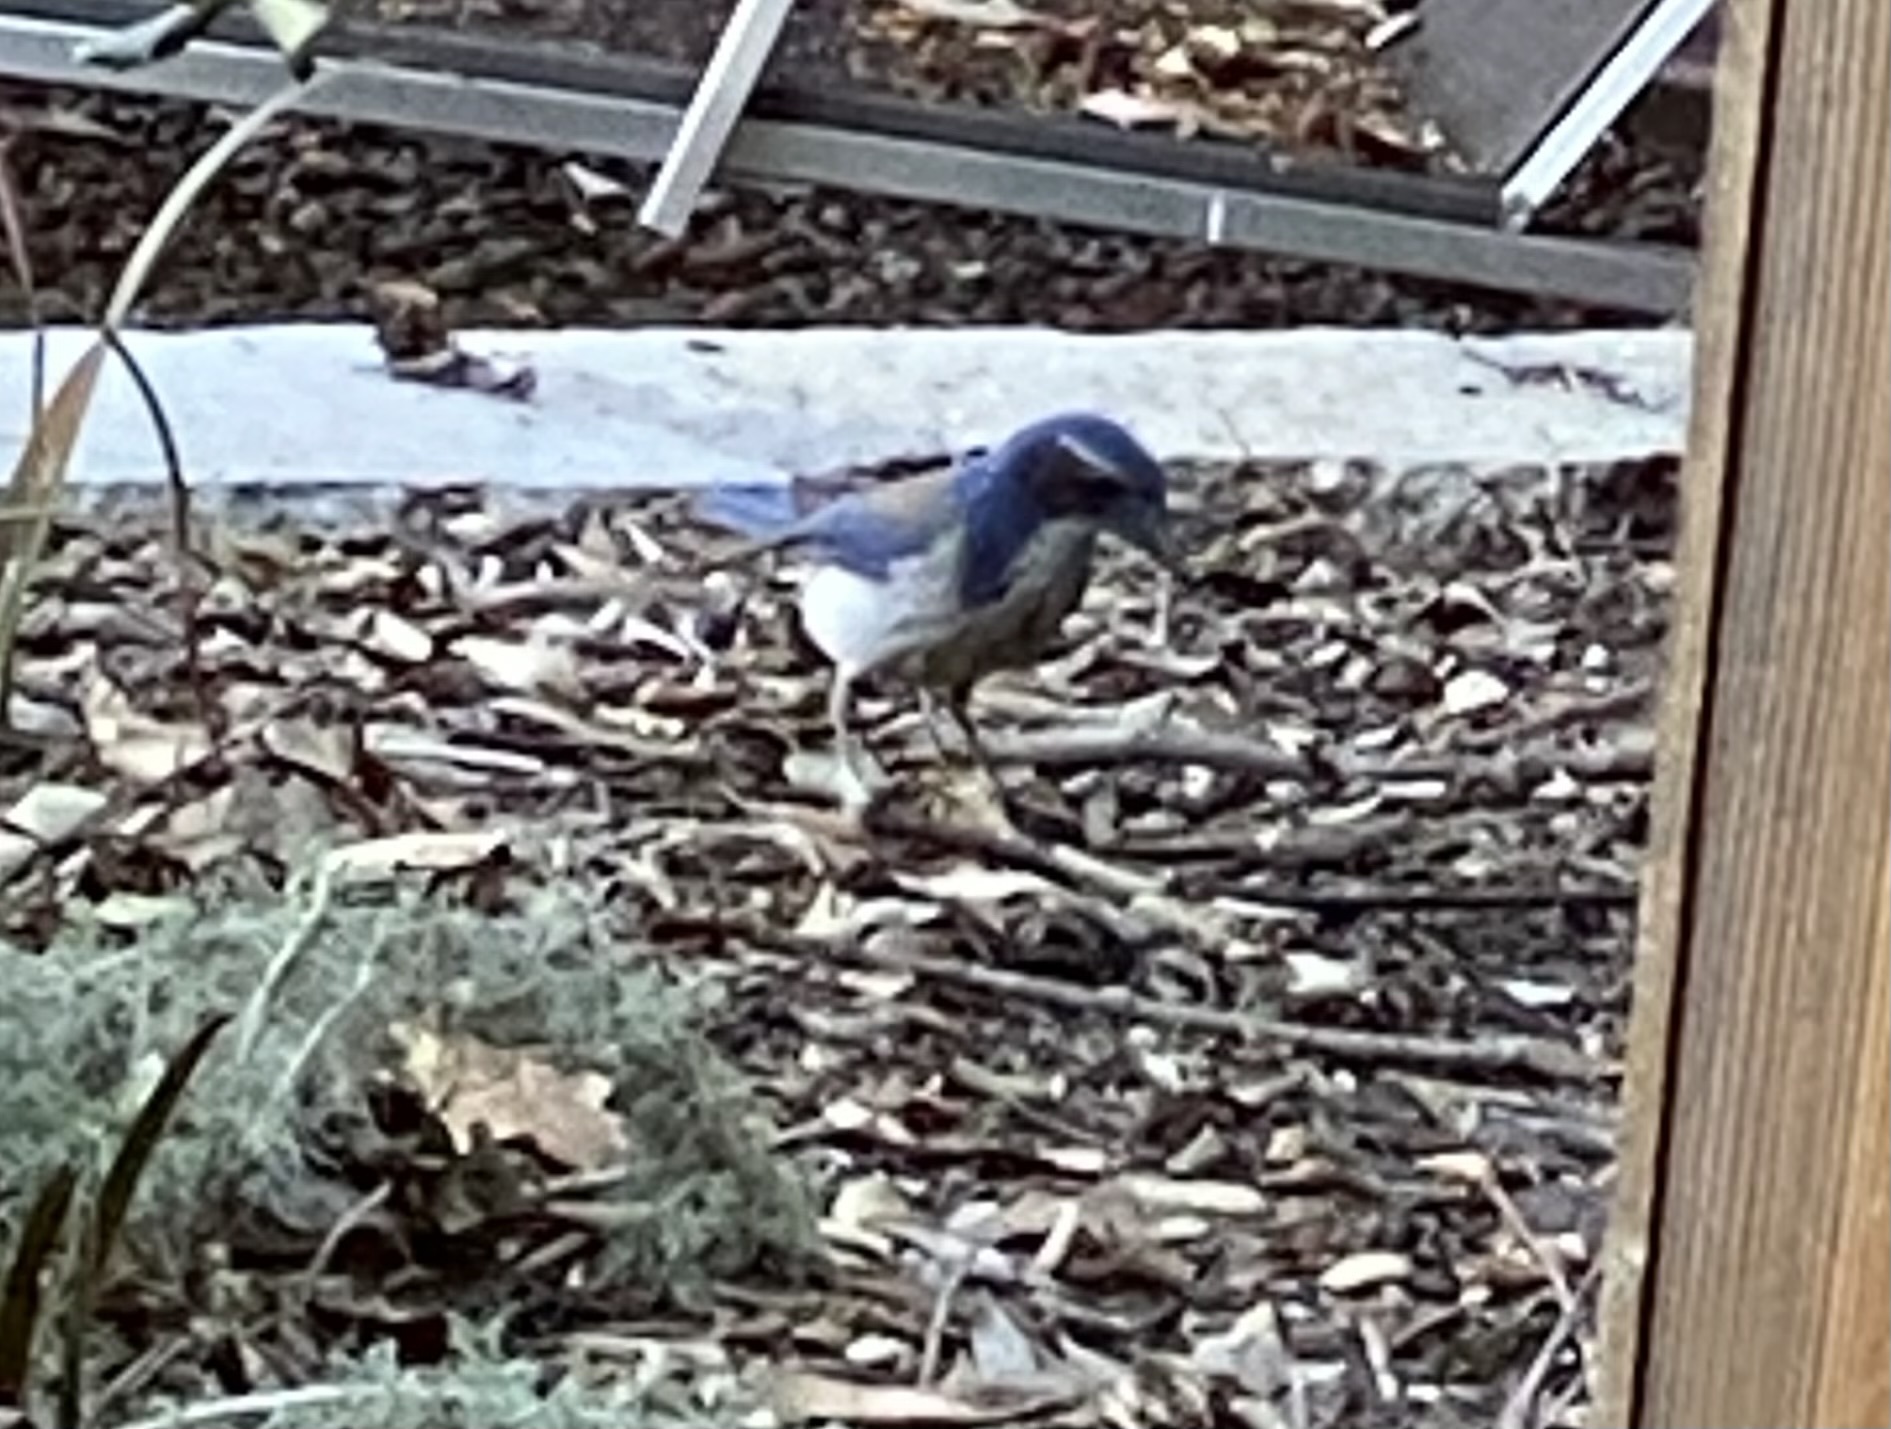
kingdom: Animalia
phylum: Chordata
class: Aves
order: Passeriformes
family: Corvidae
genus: Aphelocoma
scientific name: Aphelocoma californica
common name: California scrub-jay
